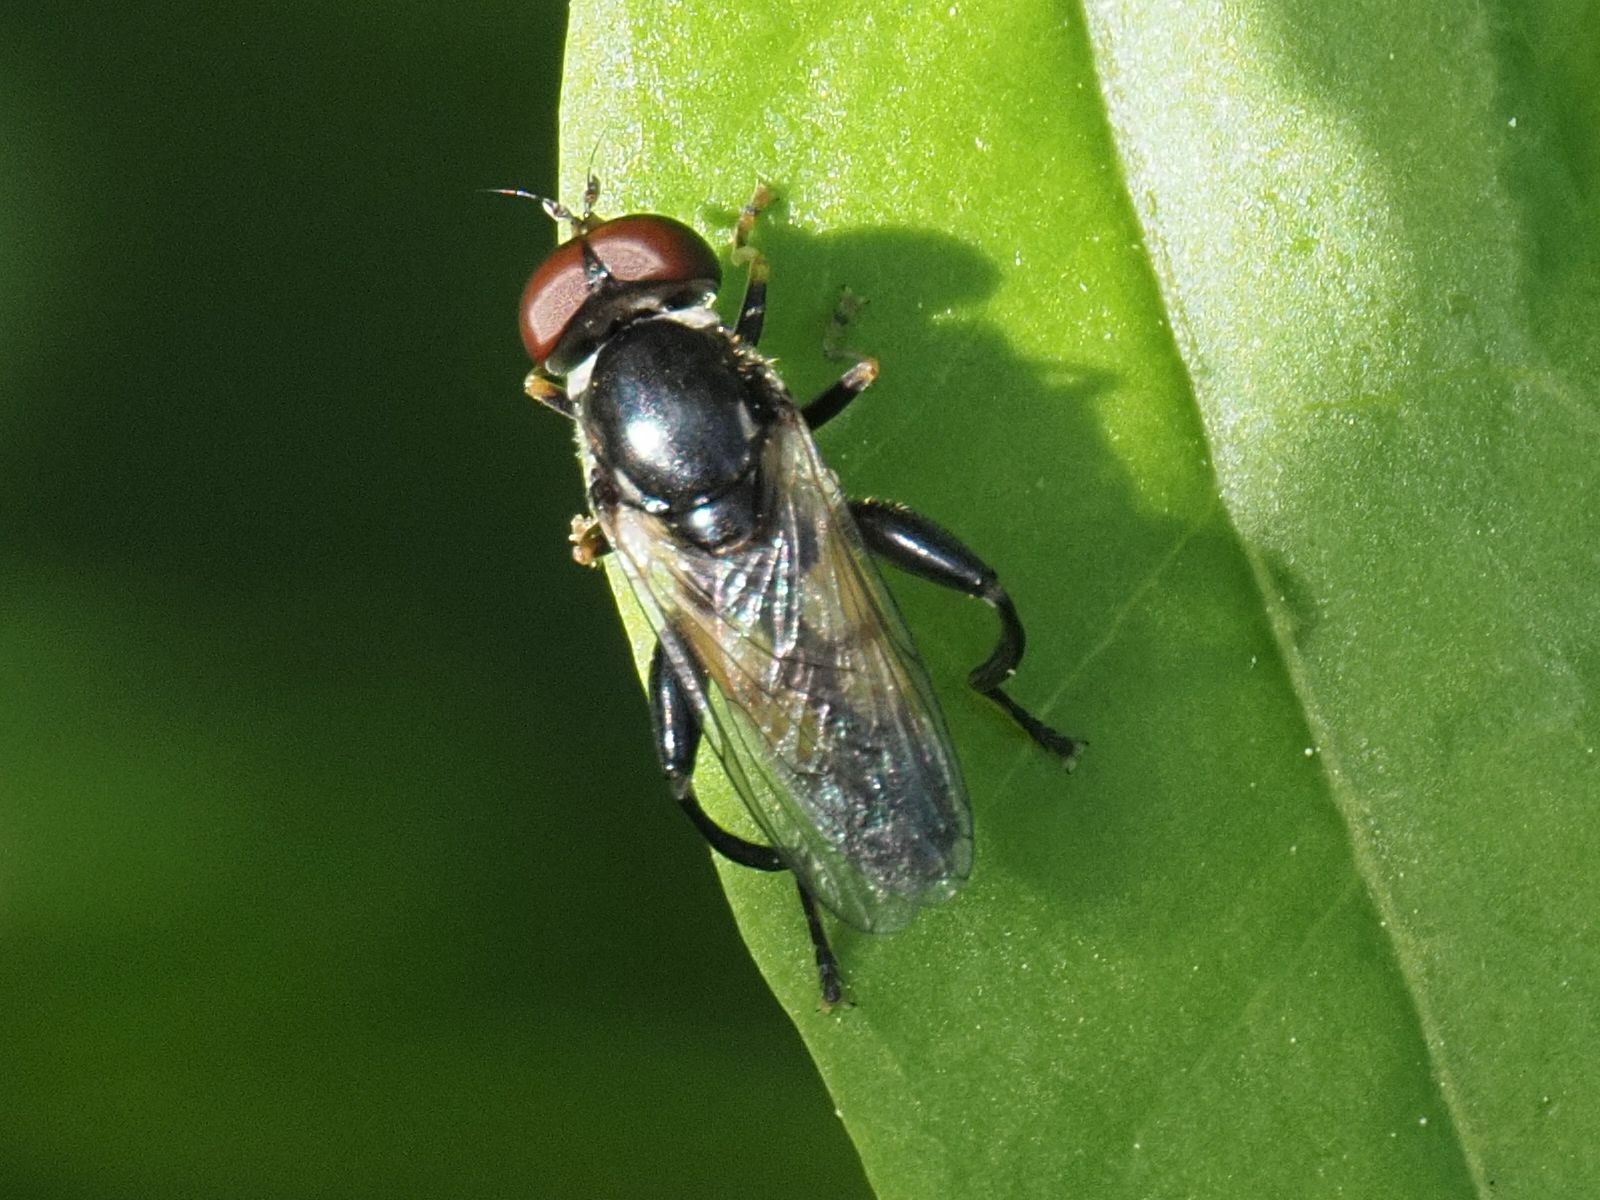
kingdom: Animalia
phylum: Arthropoda
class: Insecta
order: Diptera
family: Syrphidae
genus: Tropidia
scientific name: Tropidia scita
